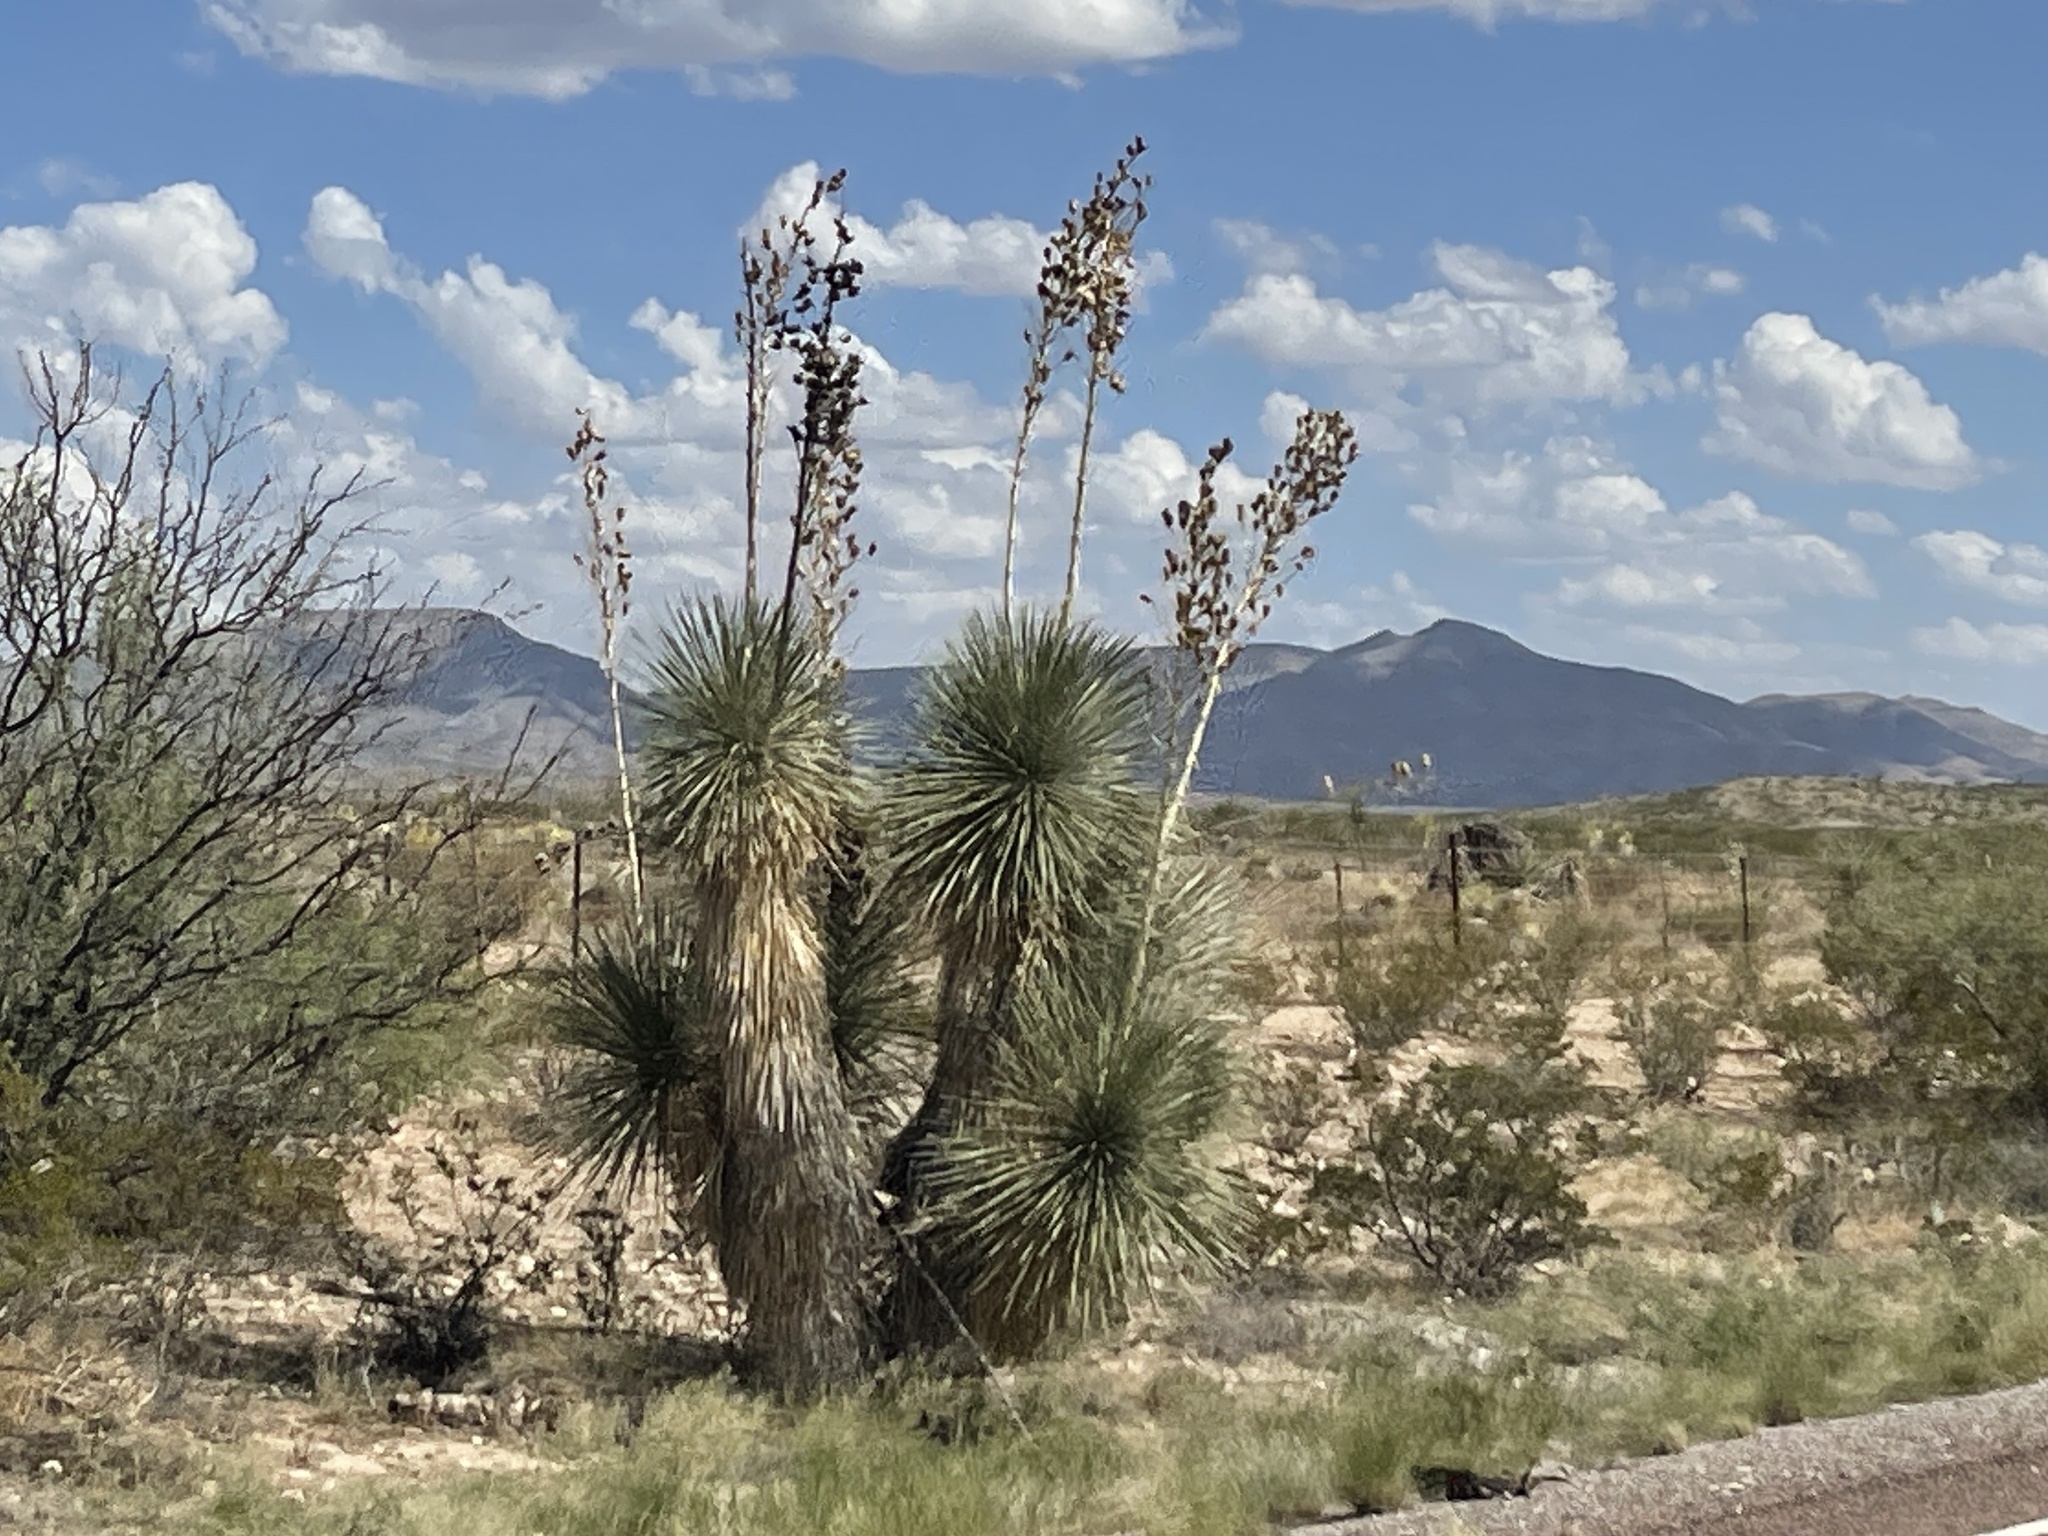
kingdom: Plantae
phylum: Tracheophyta
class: Liliopsida
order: Asparagales
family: Asparagaceae
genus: Yucca
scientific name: Yucca elata
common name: Palmella
